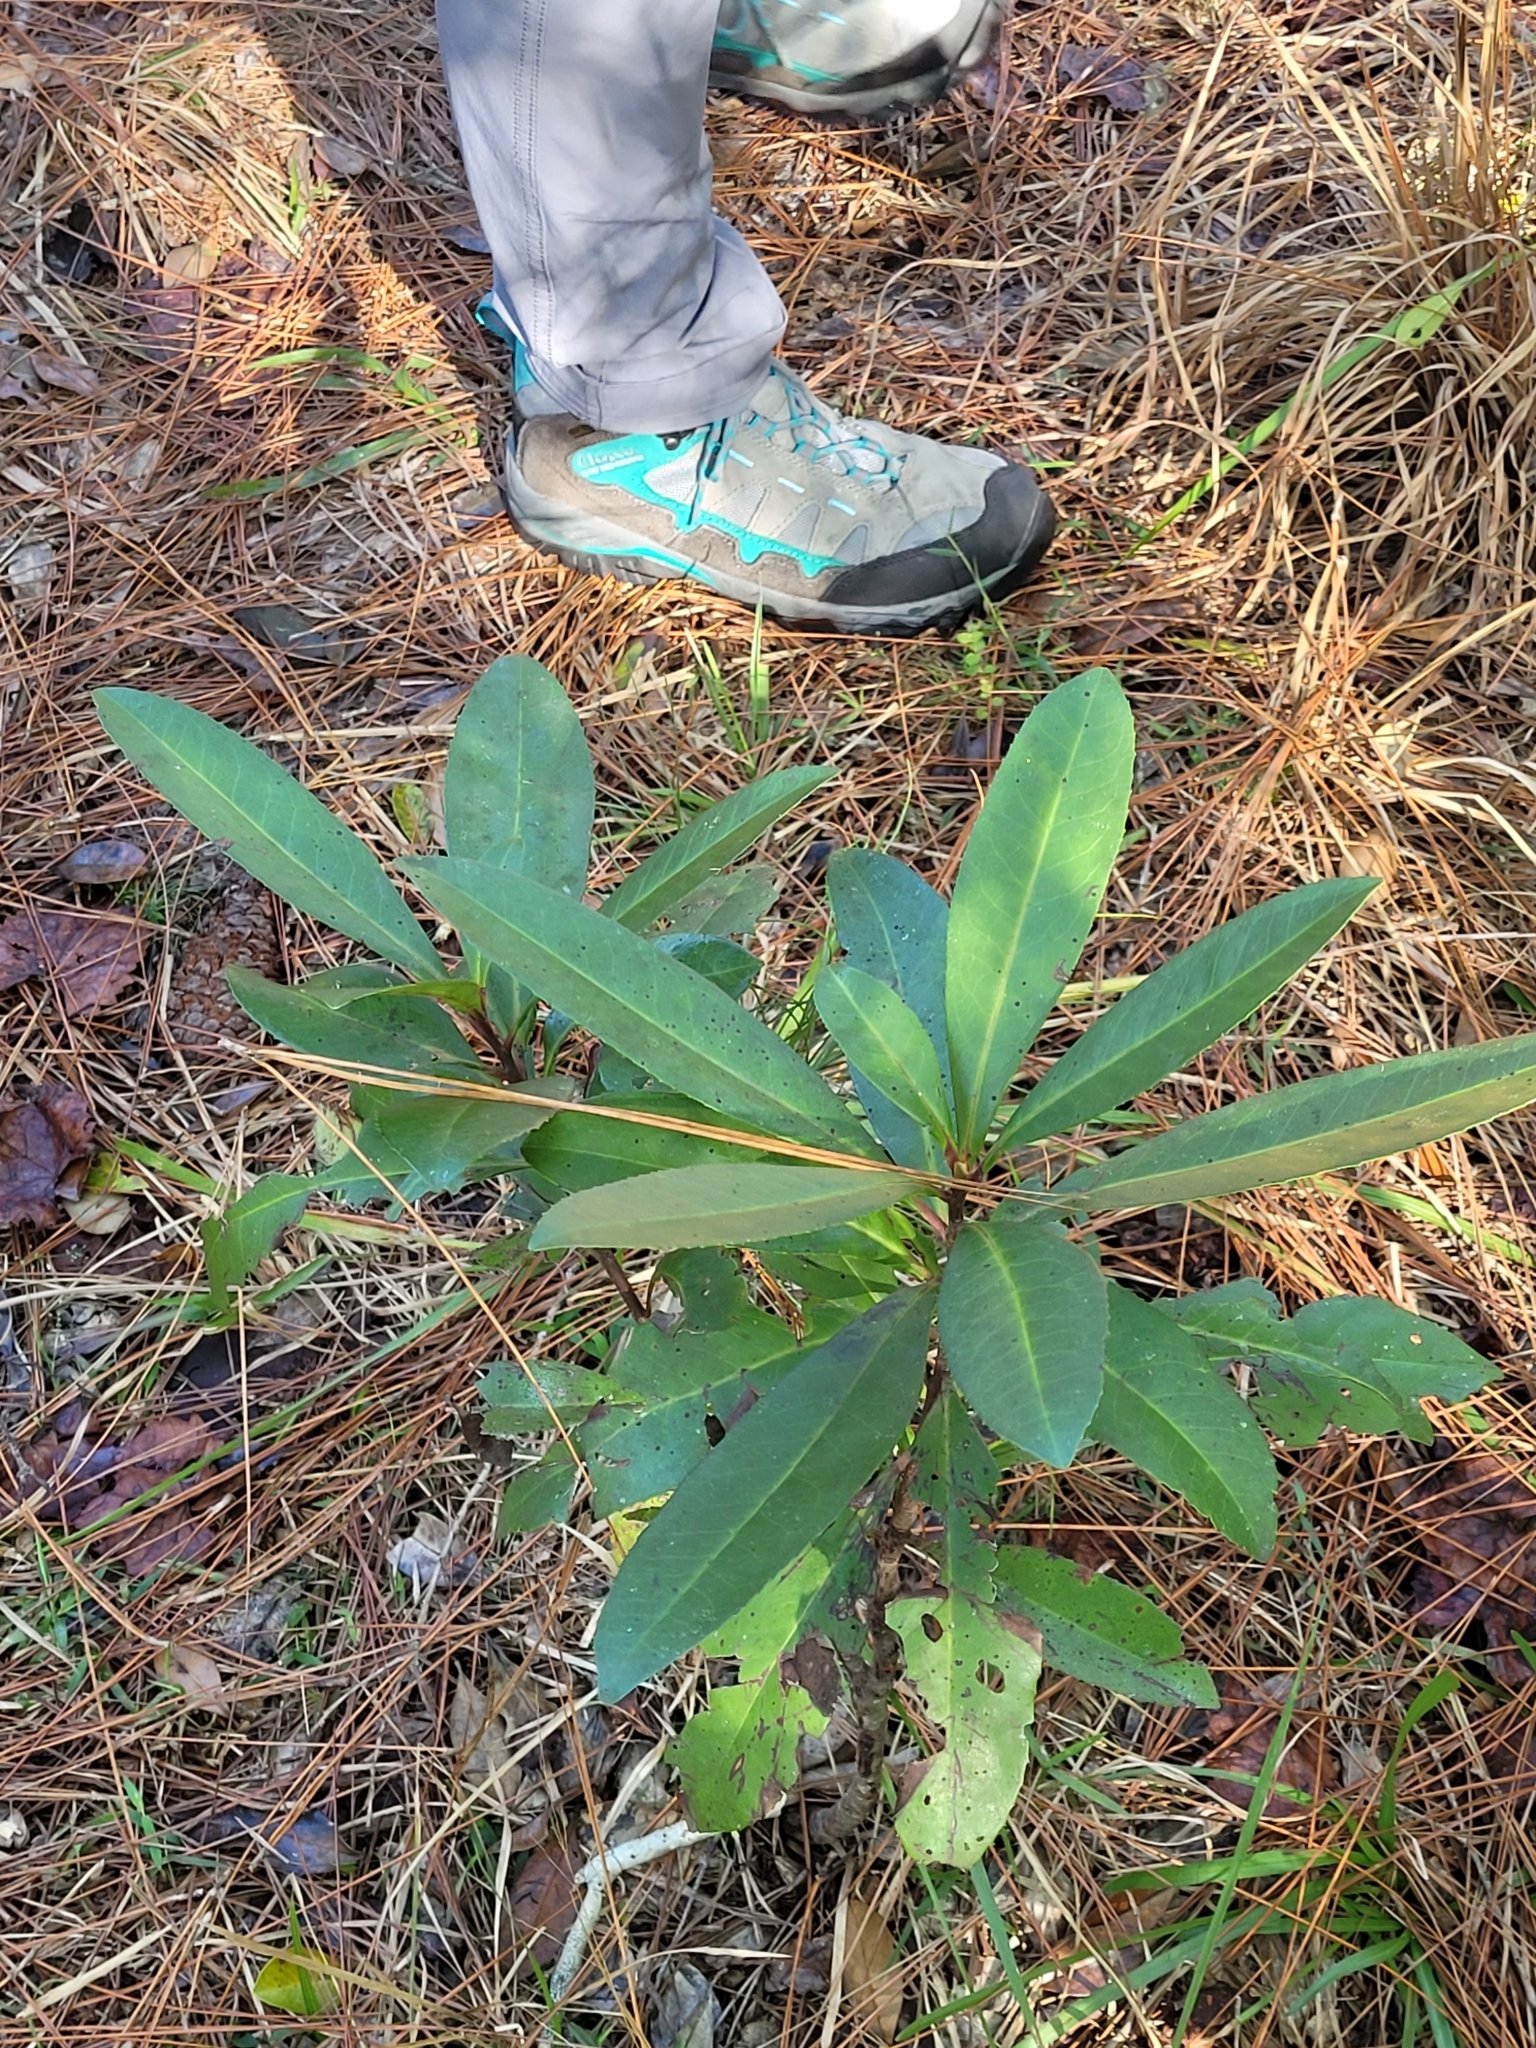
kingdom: Plantae
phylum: Tracheophyta
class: Magnoliopsida
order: Ericales
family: Theaceae
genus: Gordonia
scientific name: Gordonia lasianthus
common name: Loblolly bay
